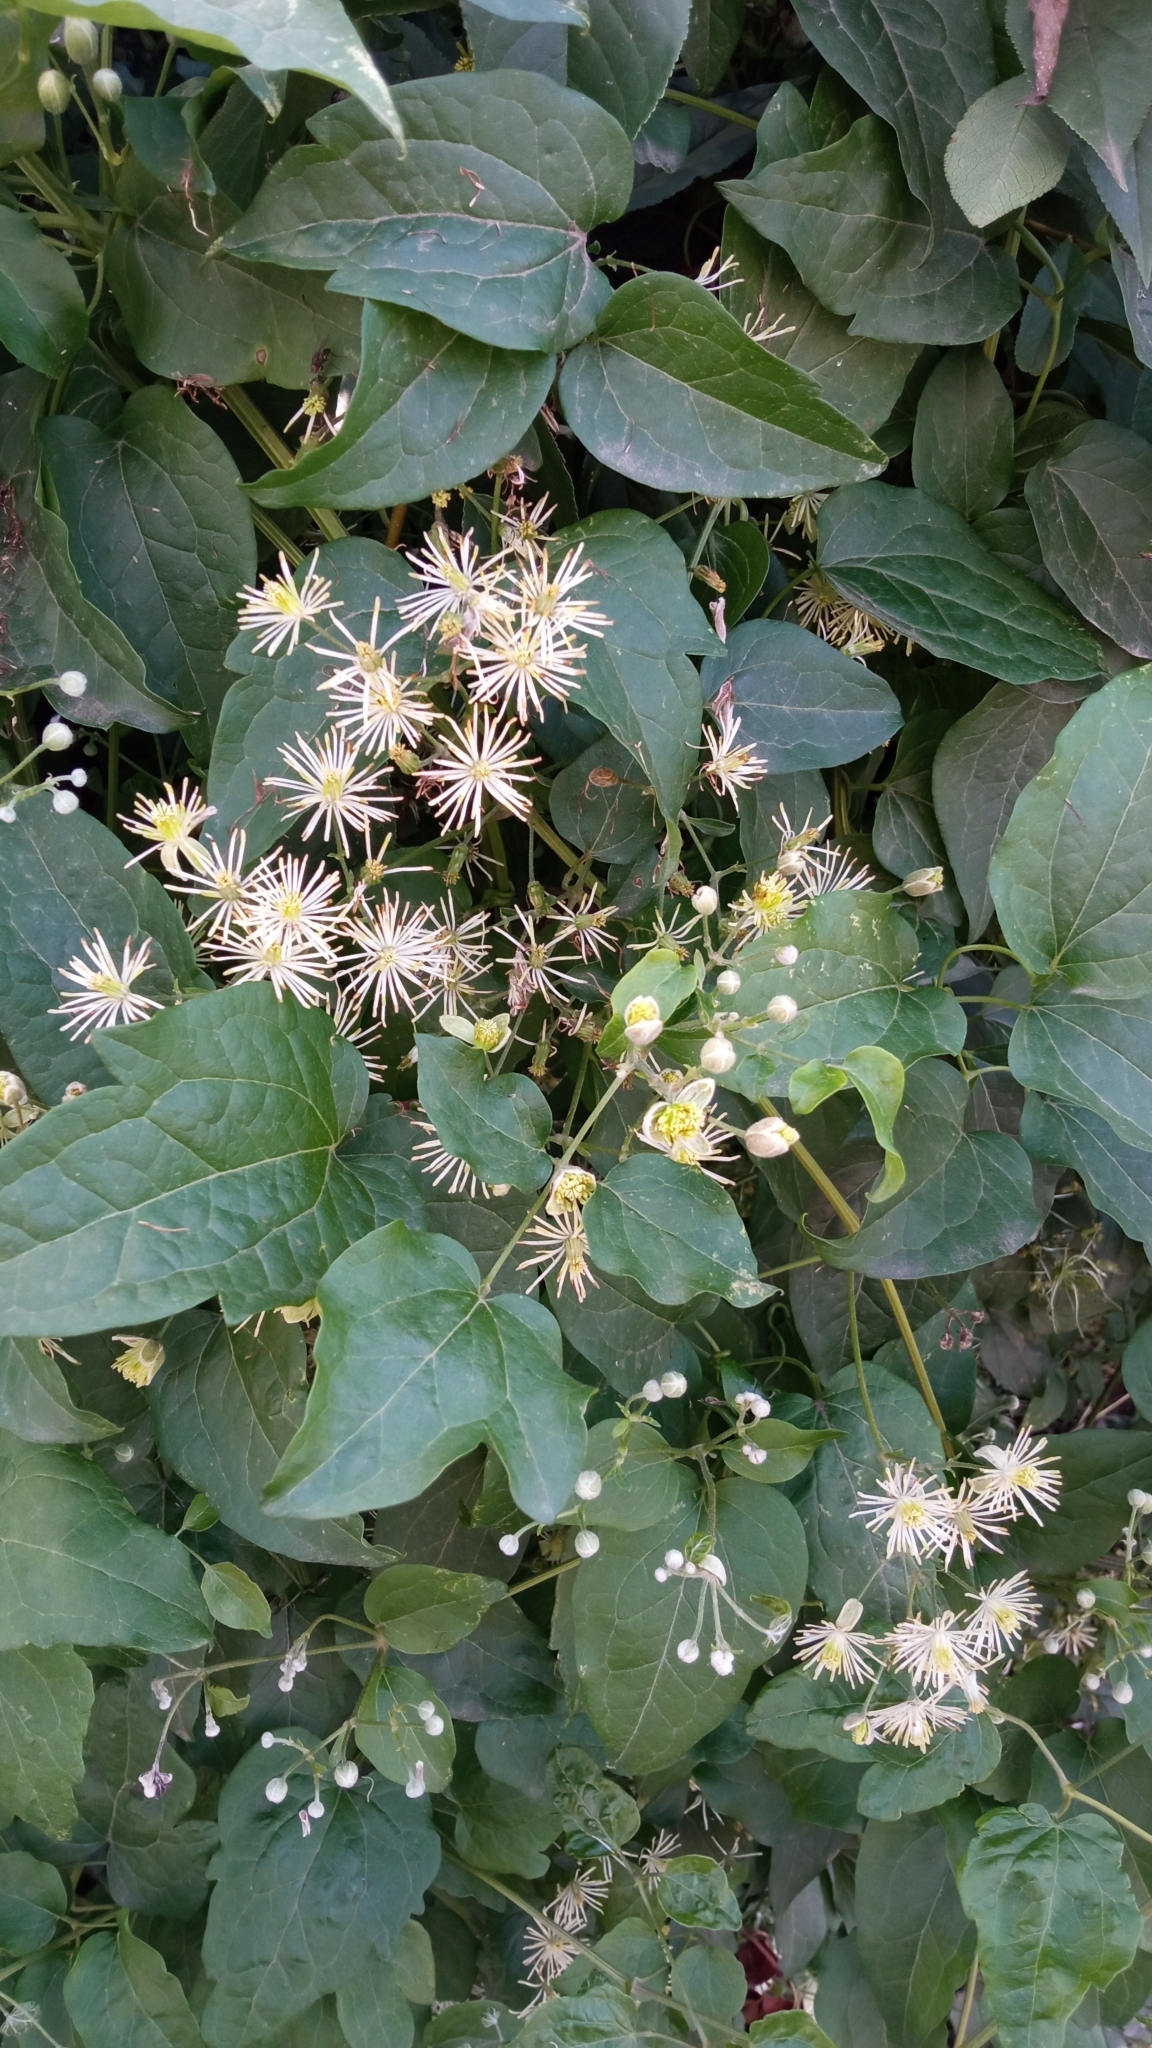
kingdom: Plantae
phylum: Tracheophyta
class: Magnoliopsida
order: Ranunculales
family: Ranunculaceae
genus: Clematis
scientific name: Clematis vitalba
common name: Evergreen clematis
